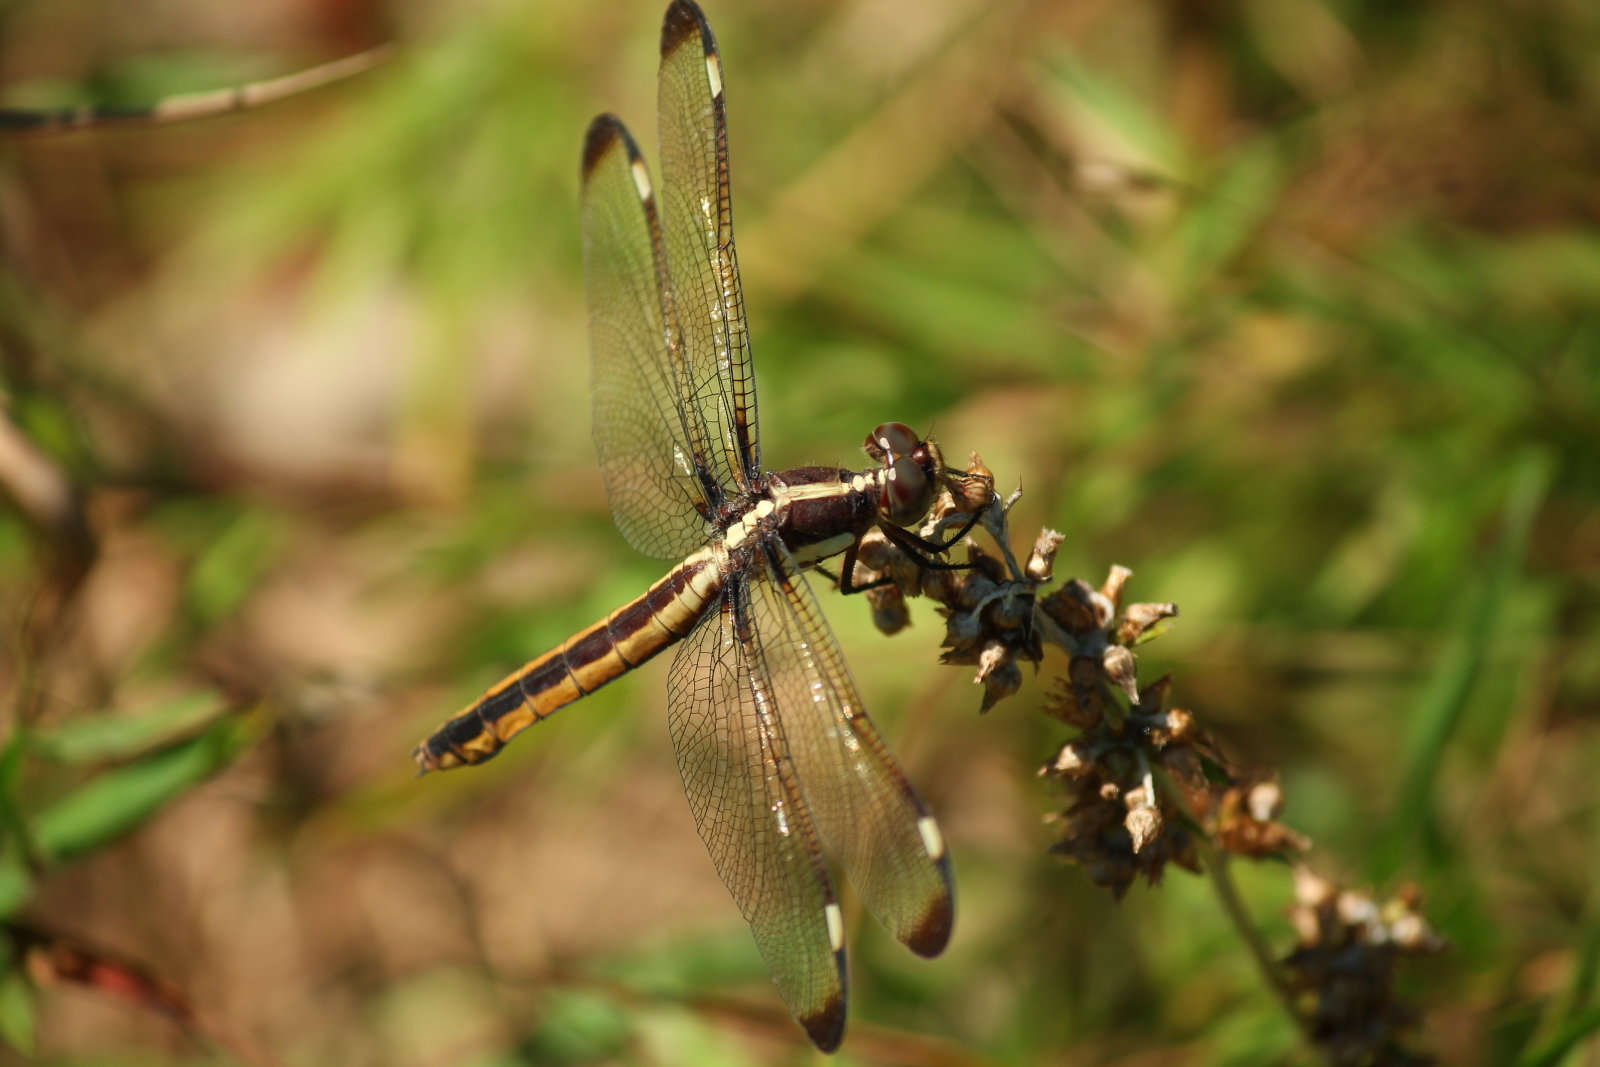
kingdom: Animalia
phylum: Arthropoda
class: Insecta
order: Odonata
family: Libellulidae
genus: Libellula
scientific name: Libellula cyanea
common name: Spangled skimmer
